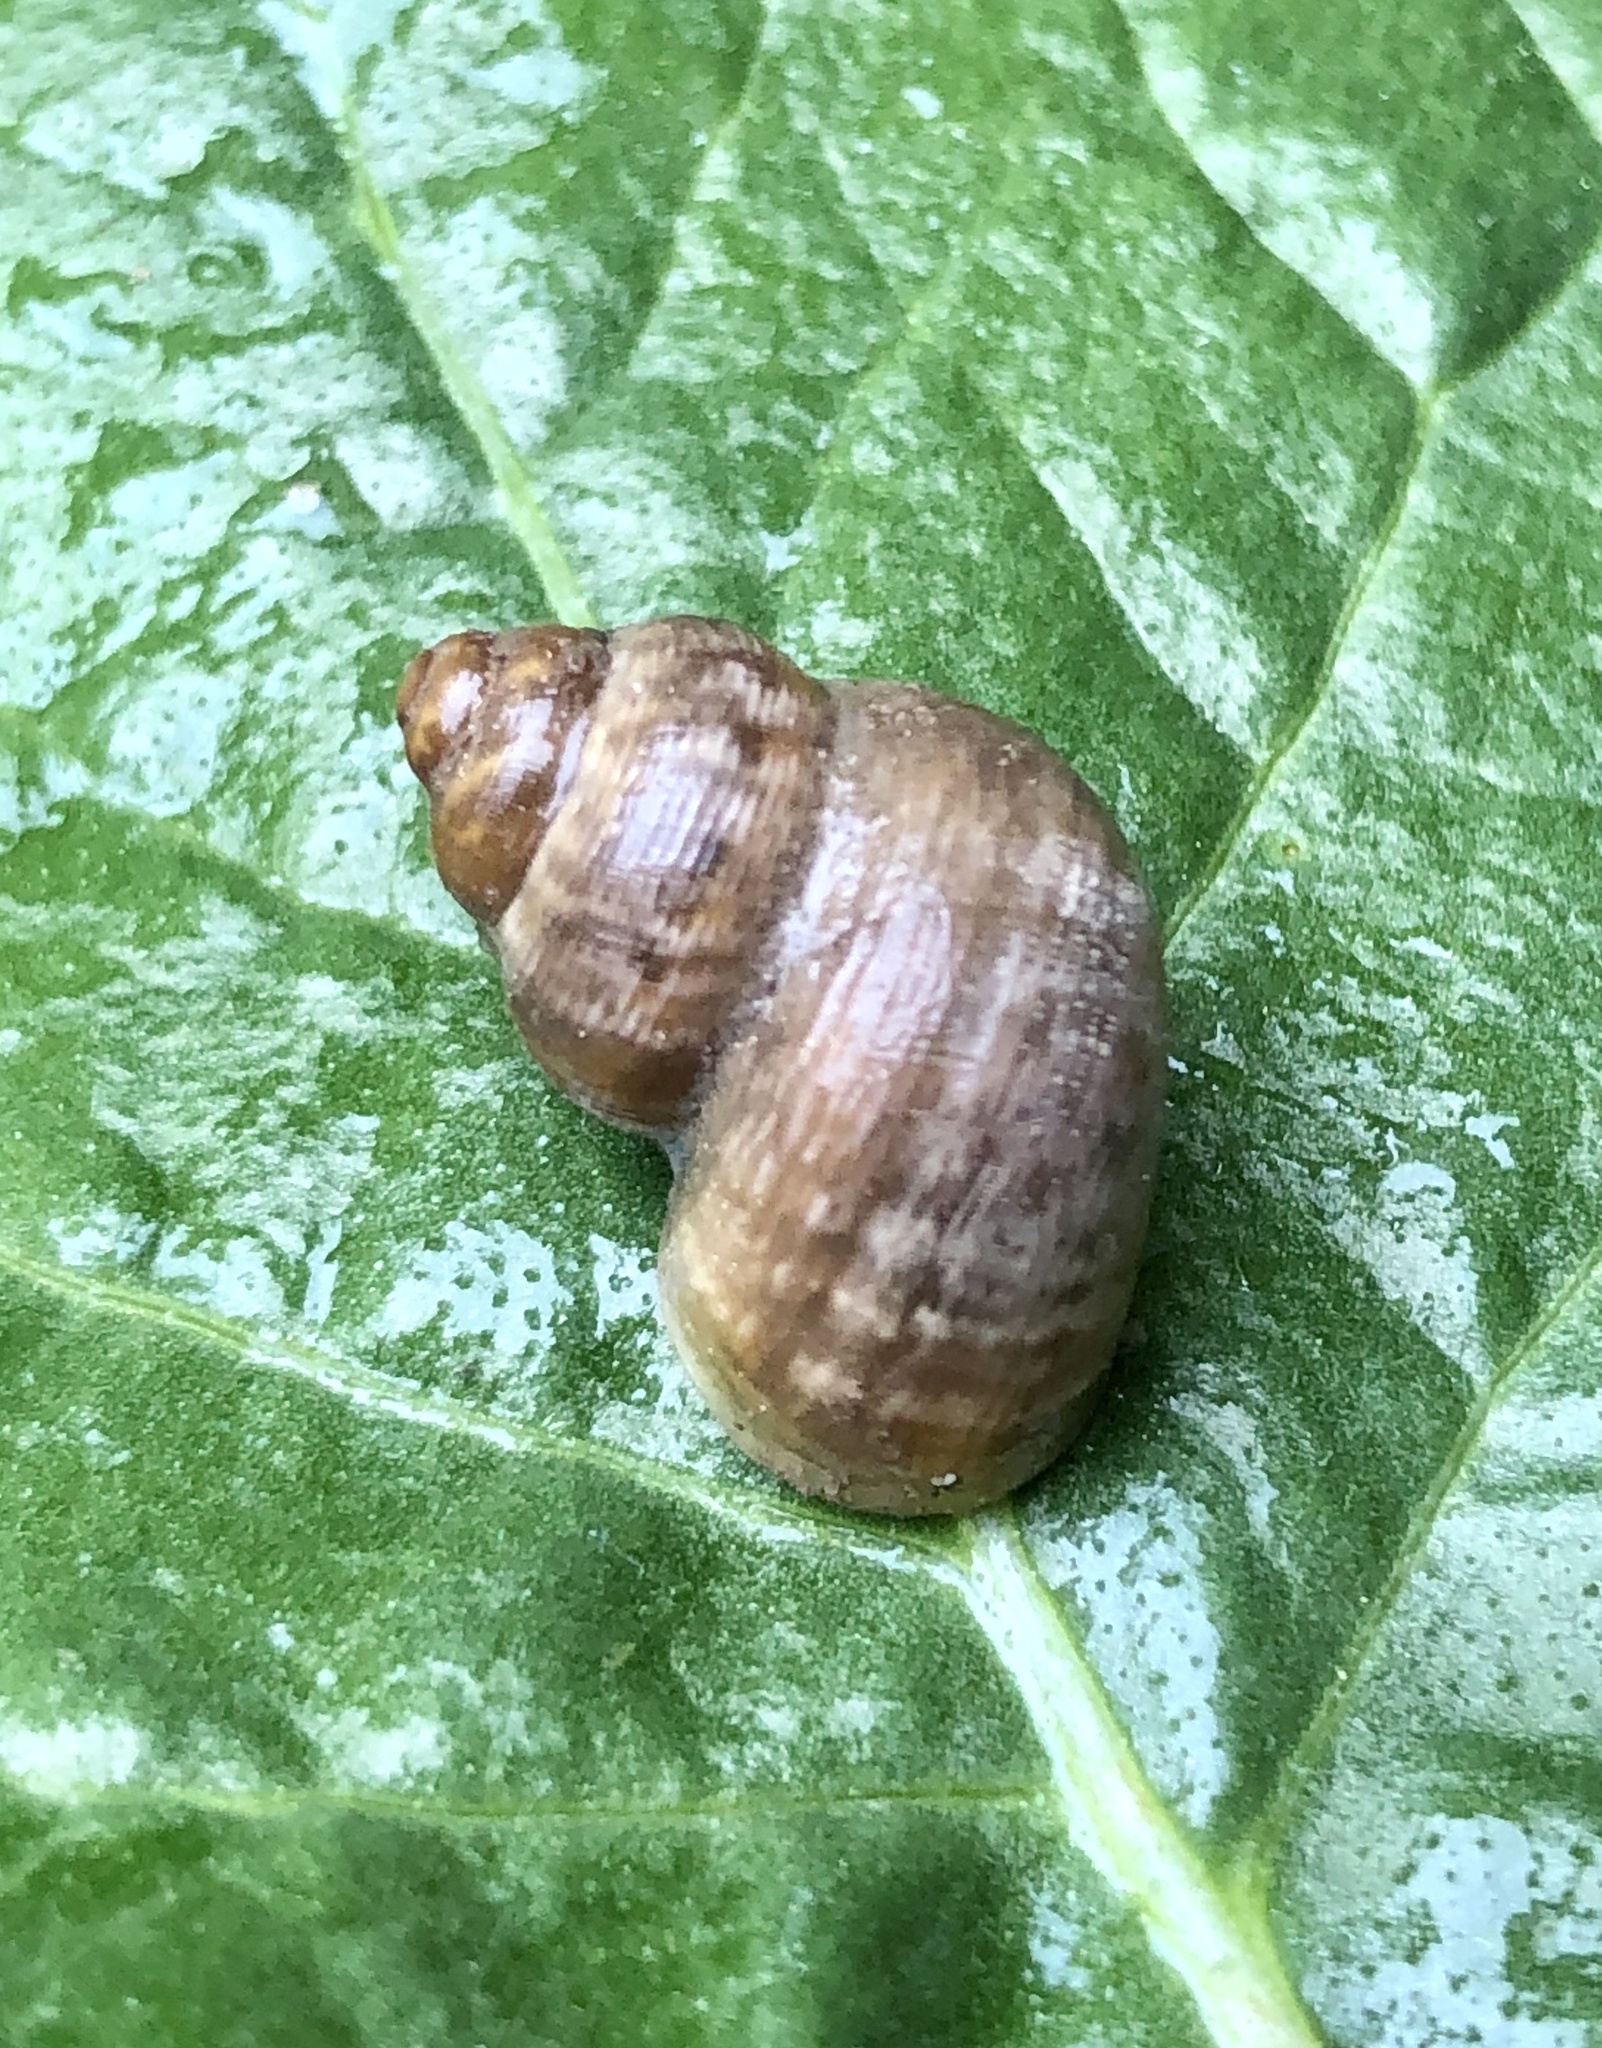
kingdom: Animalia
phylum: Mollusca
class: Gastropoda
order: Littorinimorpha
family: Pomatiidae
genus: Pomatias
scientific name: Pomatias elegans
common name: Red-mouthed snail
